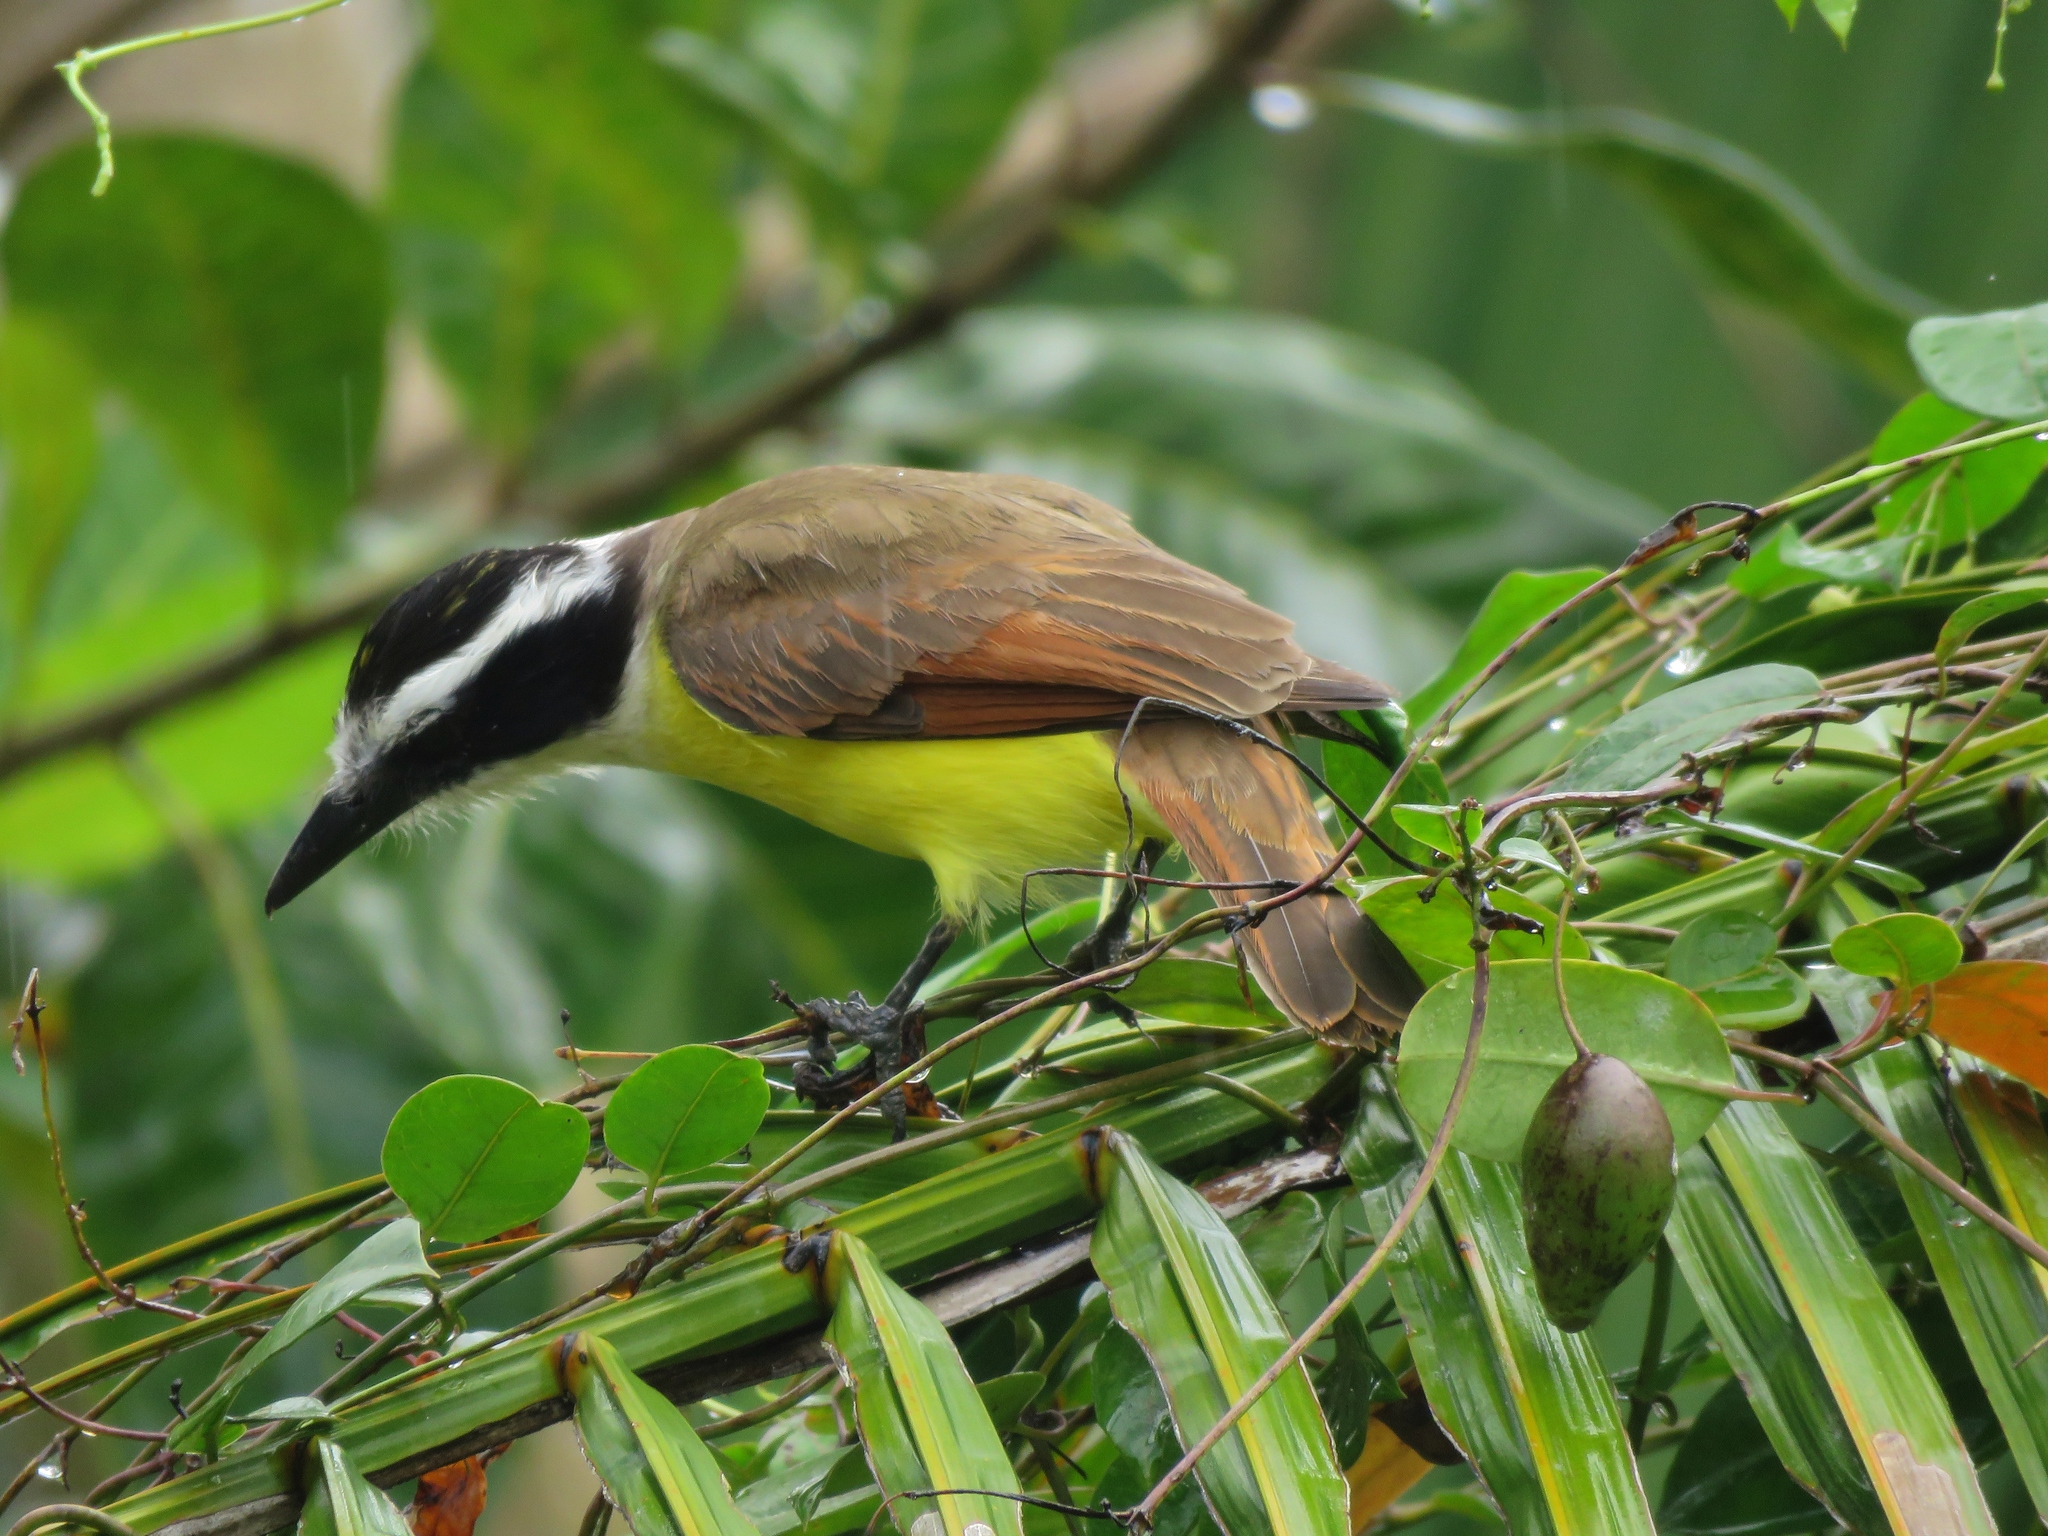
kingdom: Animalia
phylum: Chordata
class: Aves
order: Passeriformes
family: Tyrannidae
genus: Pitangus
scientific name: Pitangus sulphuratus
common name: Great kiskadee
